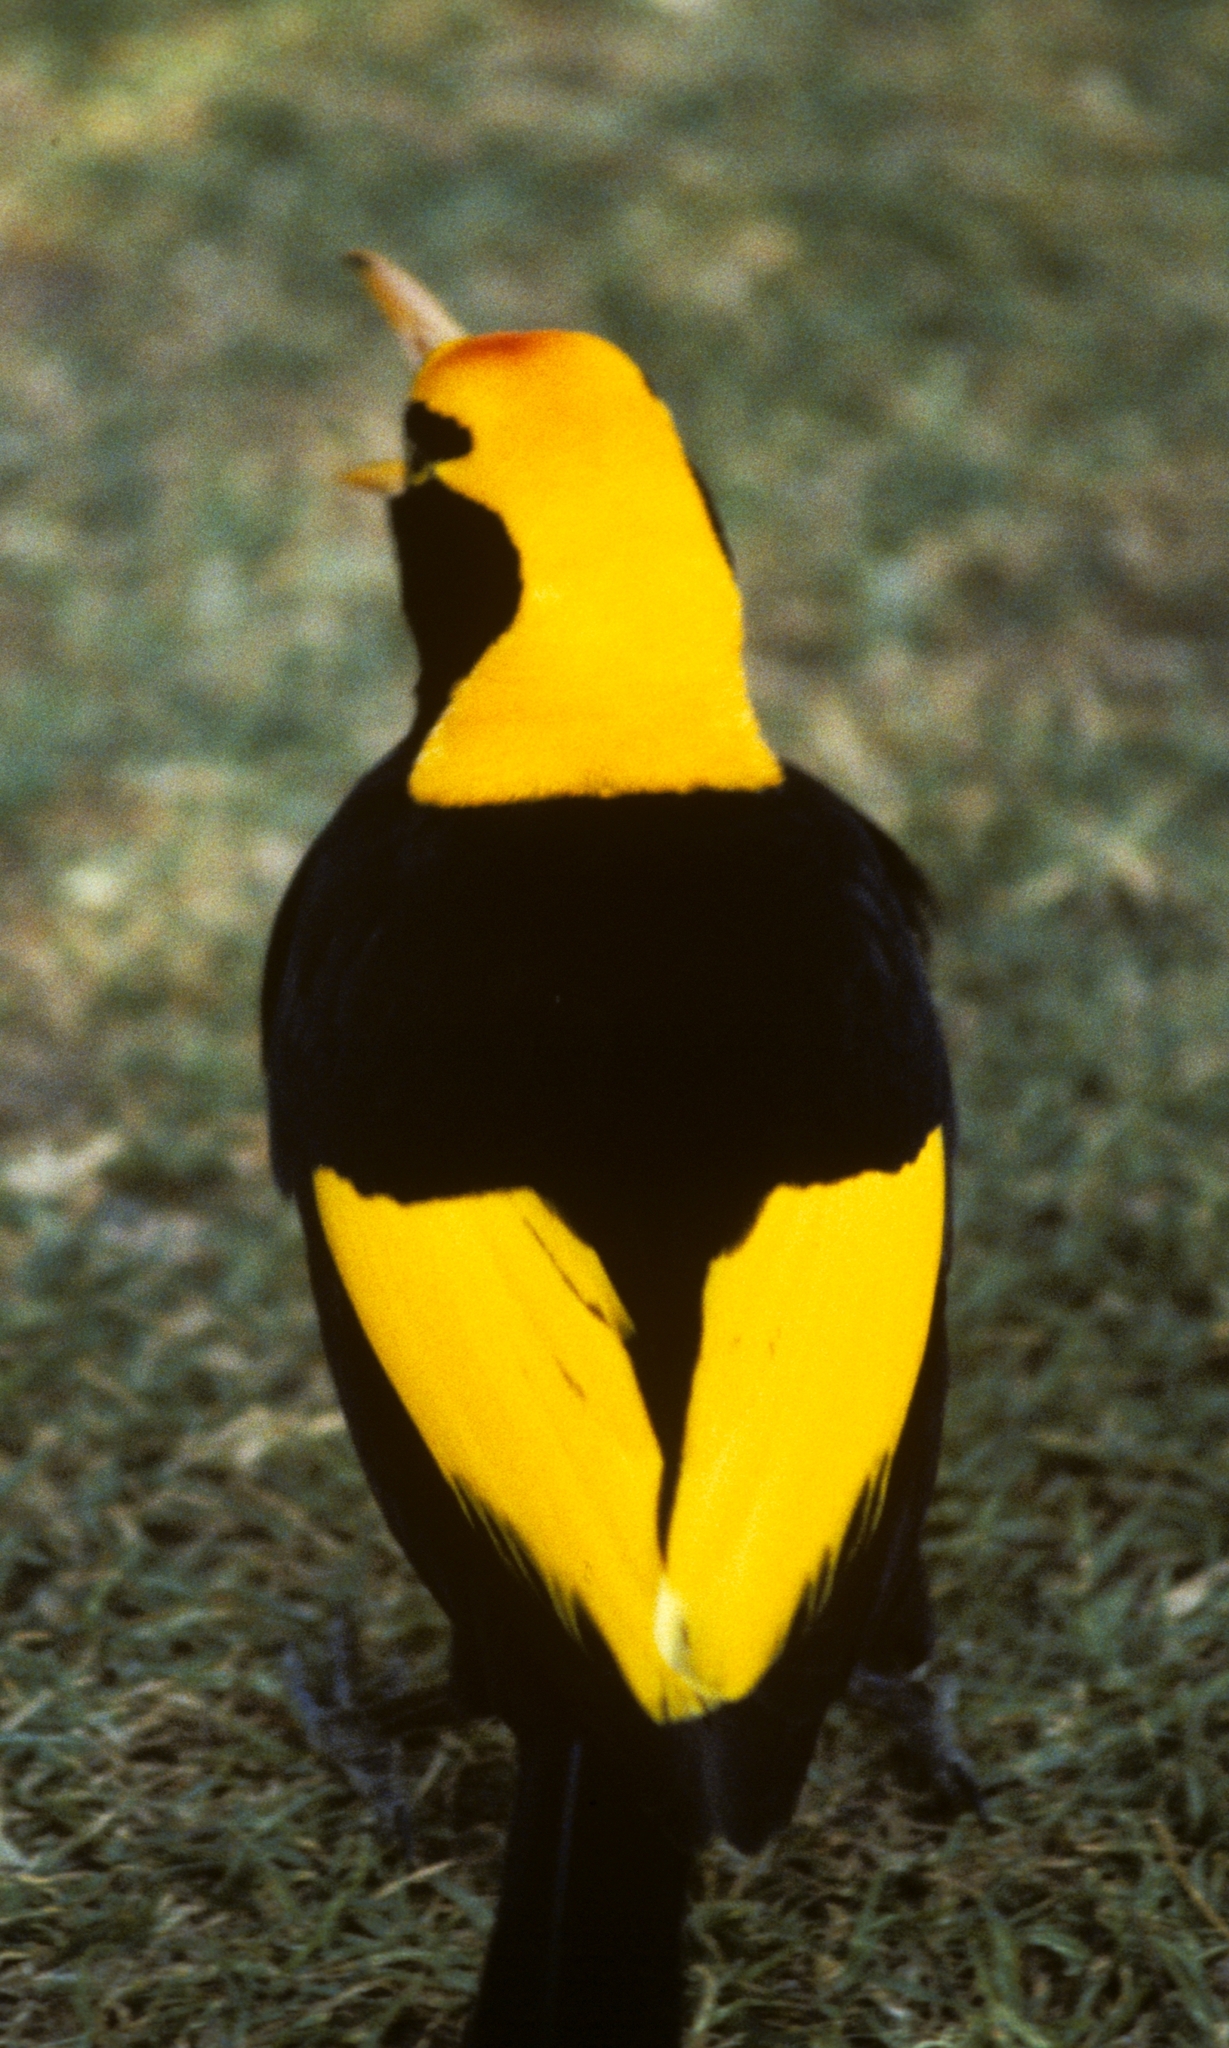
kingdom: Animalia
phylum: Chordata
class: Aves
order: Passeriformes
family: Ptilonorhynchidae
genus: Sericulus
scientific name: Sericulus chrysocephalus
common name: Regent bowerbird
